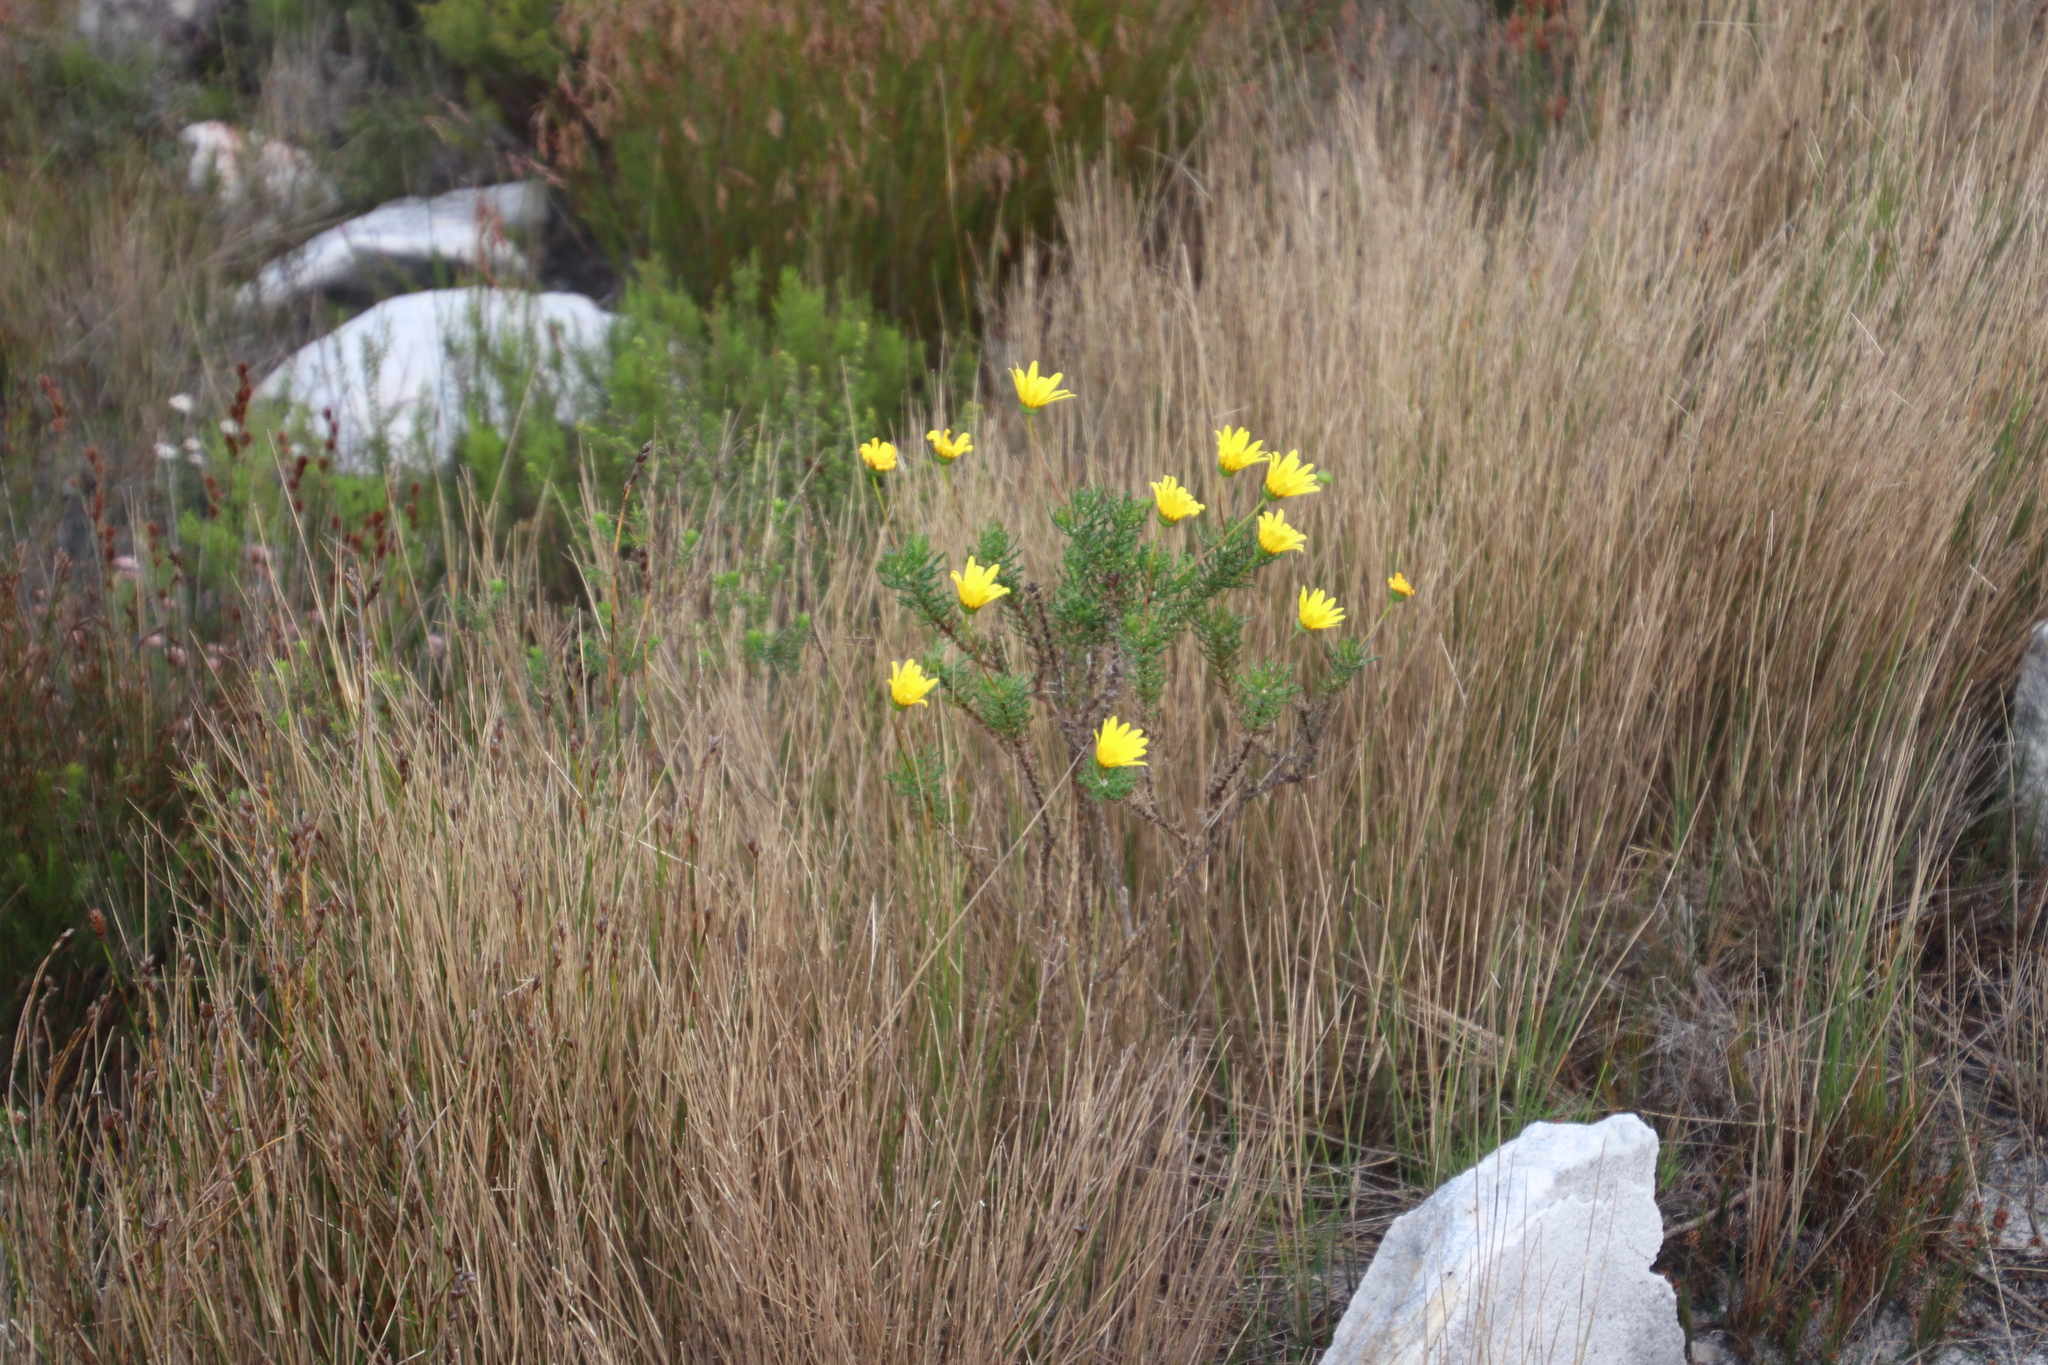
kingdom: Plantae
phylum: Tracheophyta
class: Magnoliopsida
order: Asterales
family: Asteraceae
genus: Euryops
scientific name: Euryops abrotanifolius
